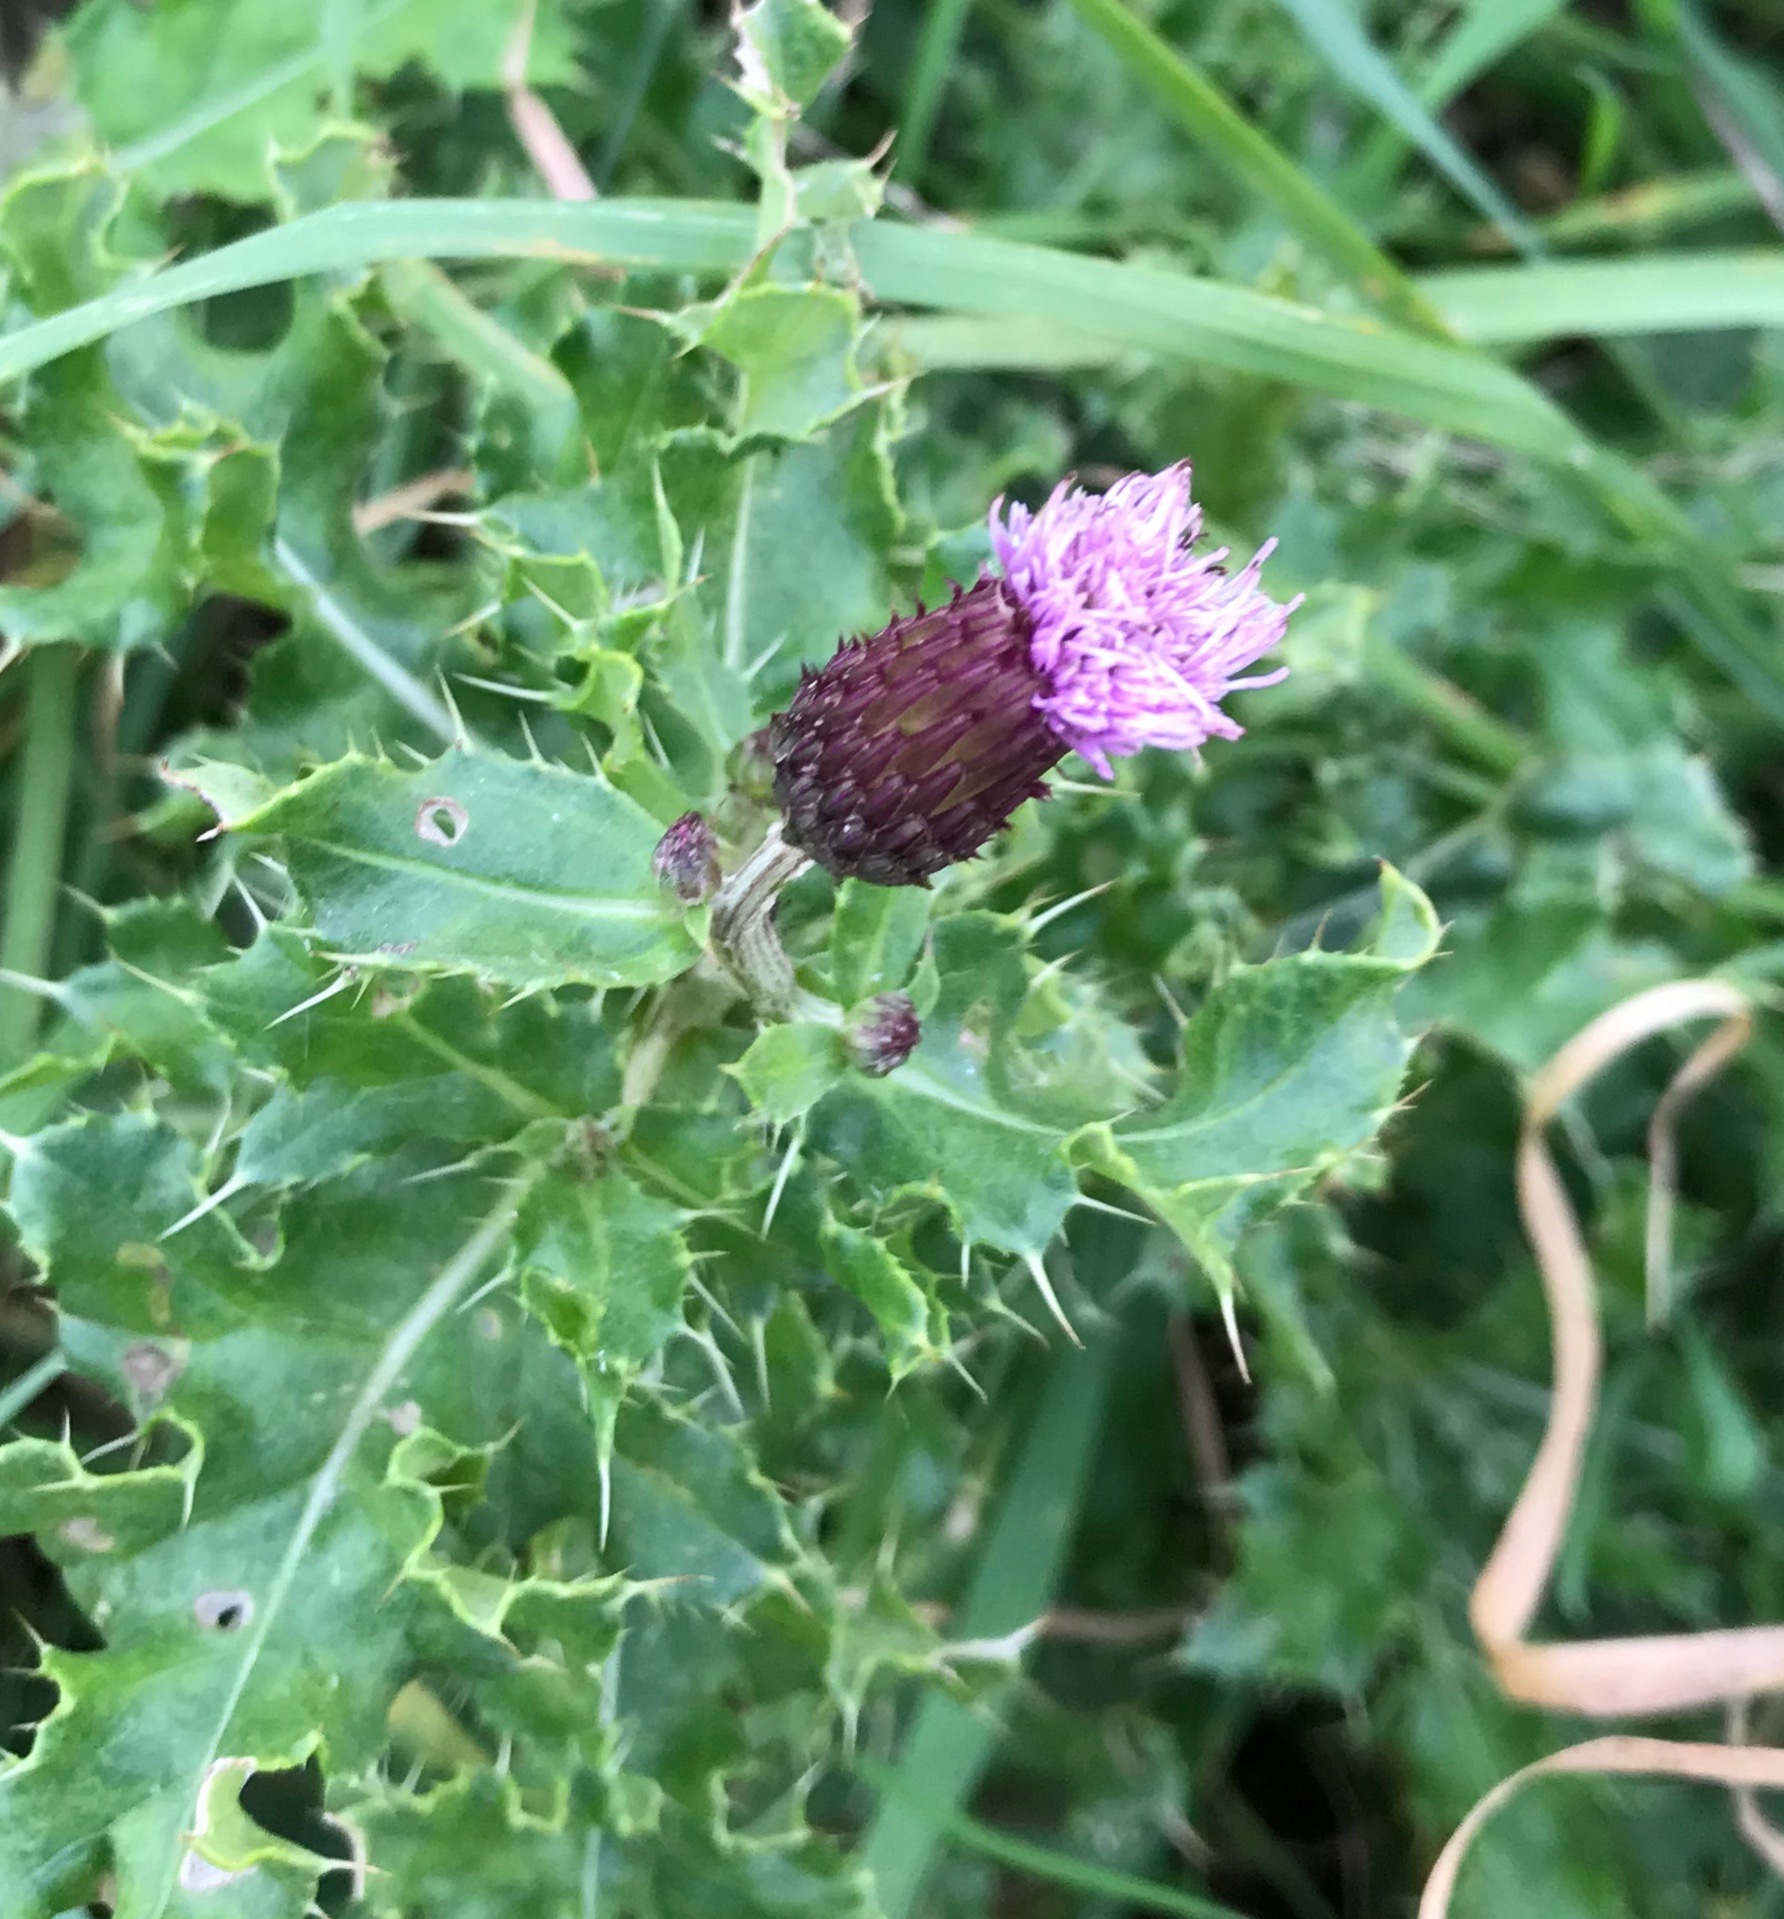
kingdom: Plantae
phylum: Tracheophyta
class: Magnoliopsida
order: Asterales
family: Asteraceae
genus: Cirsium
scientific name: Cirsium arvense
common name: Creeping thistle
